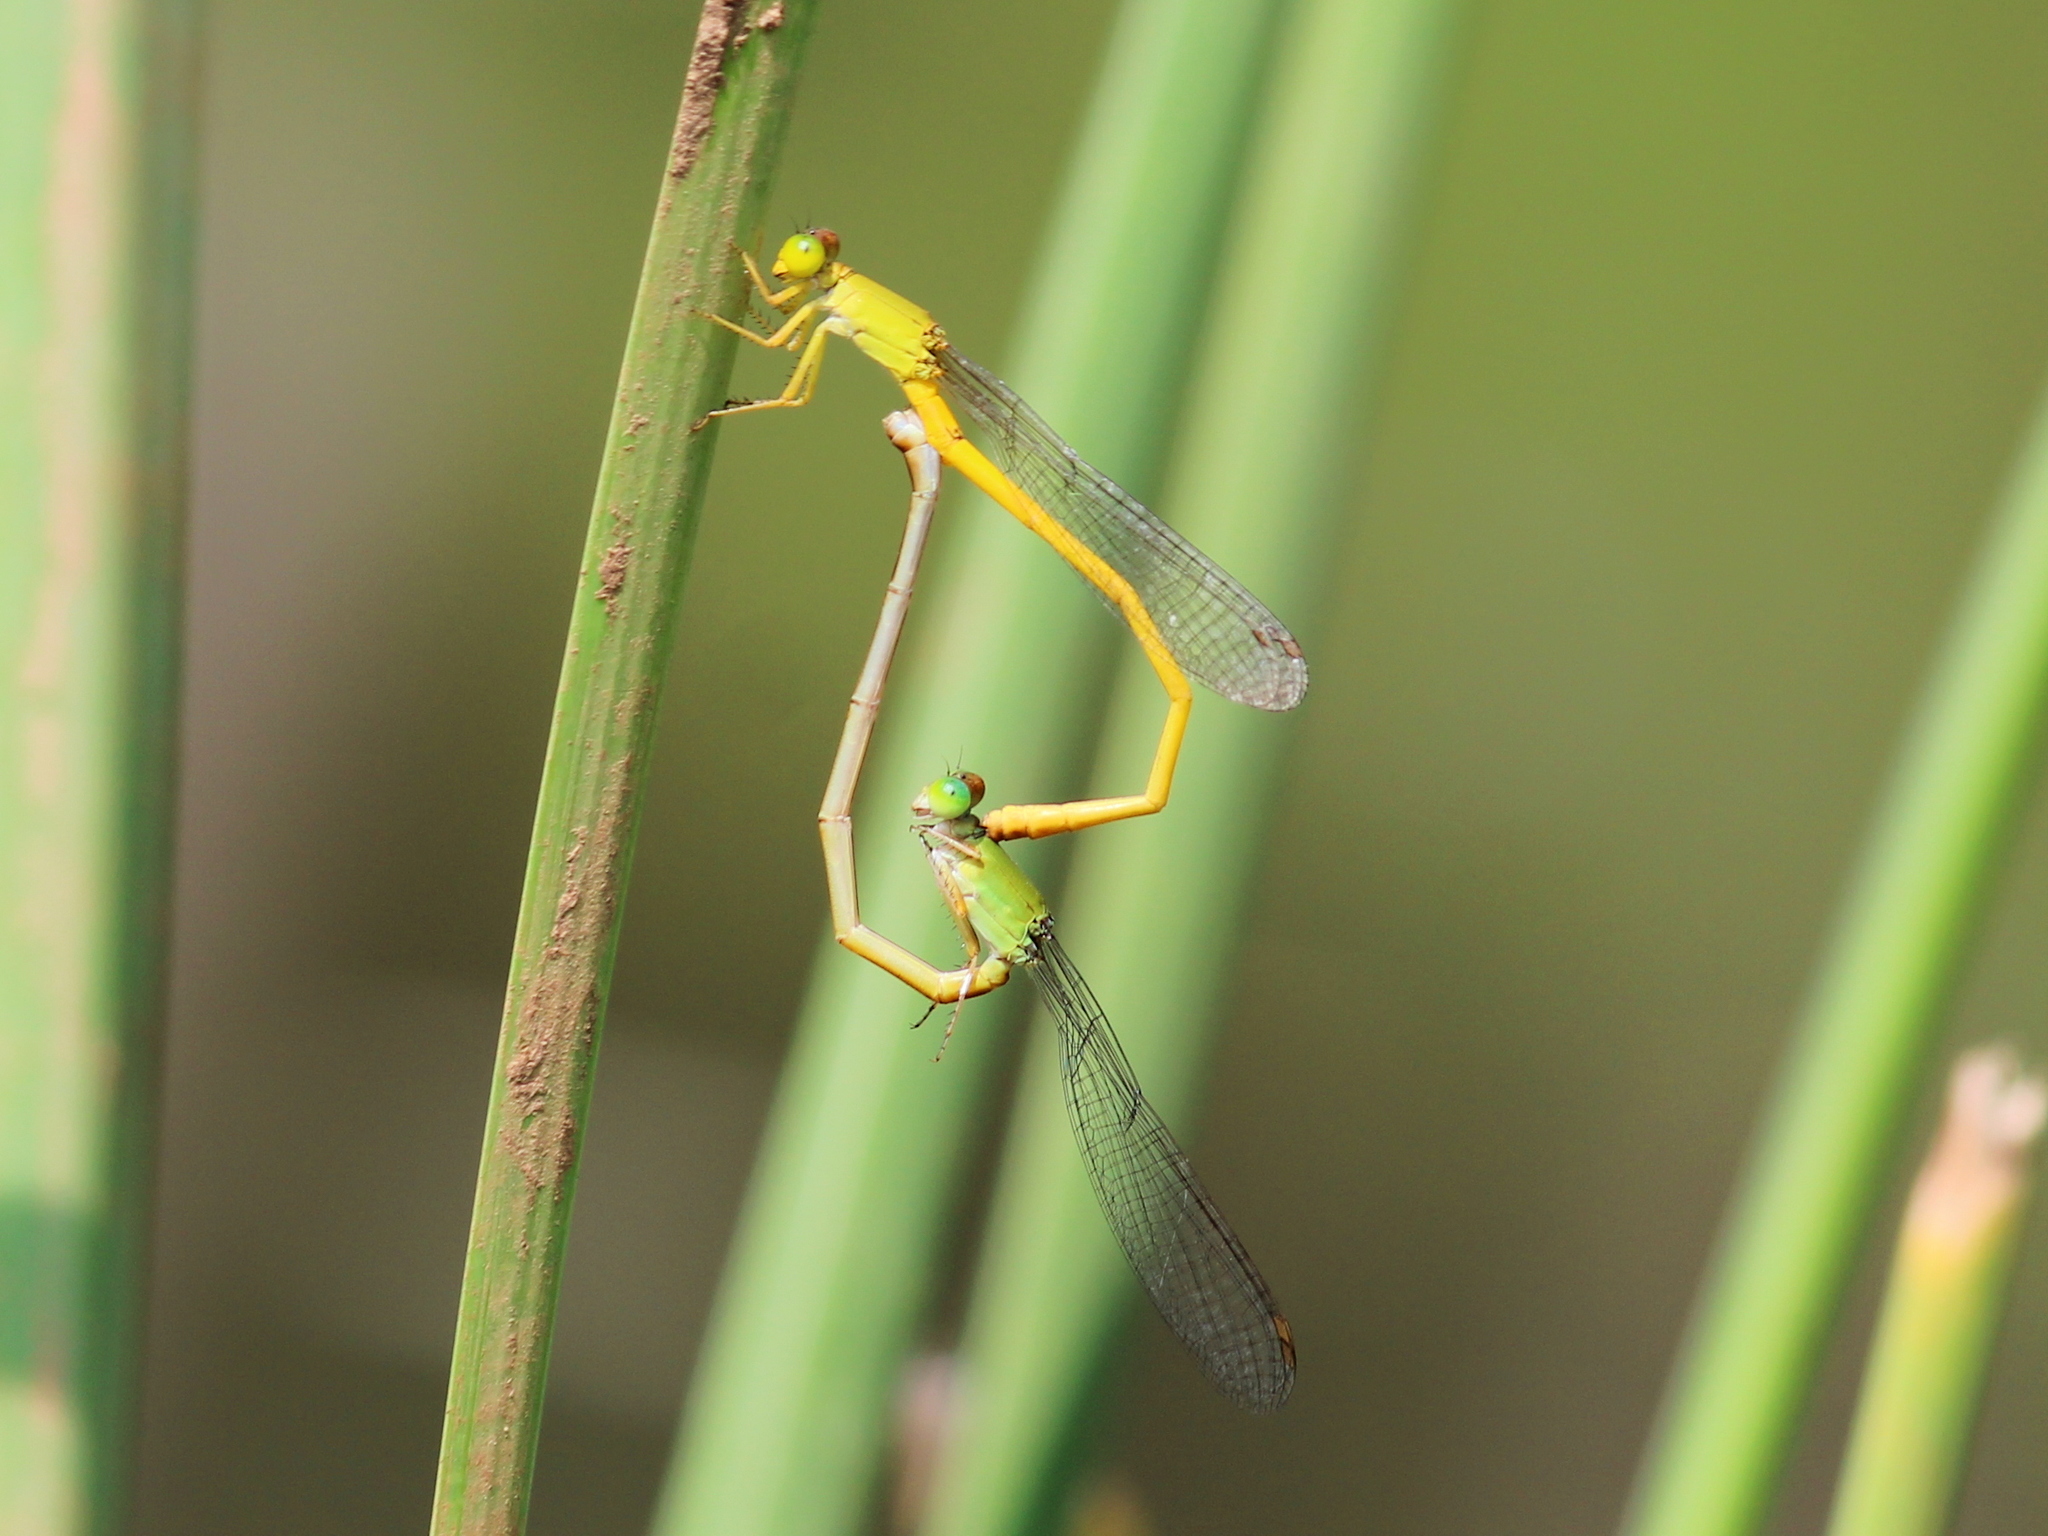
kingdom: Animalia
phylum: Arthropoda
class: Insecta
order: Odonata
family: Coenagrionidae
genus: Ceriagrion
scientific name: Ceriagrion coromandelianum
